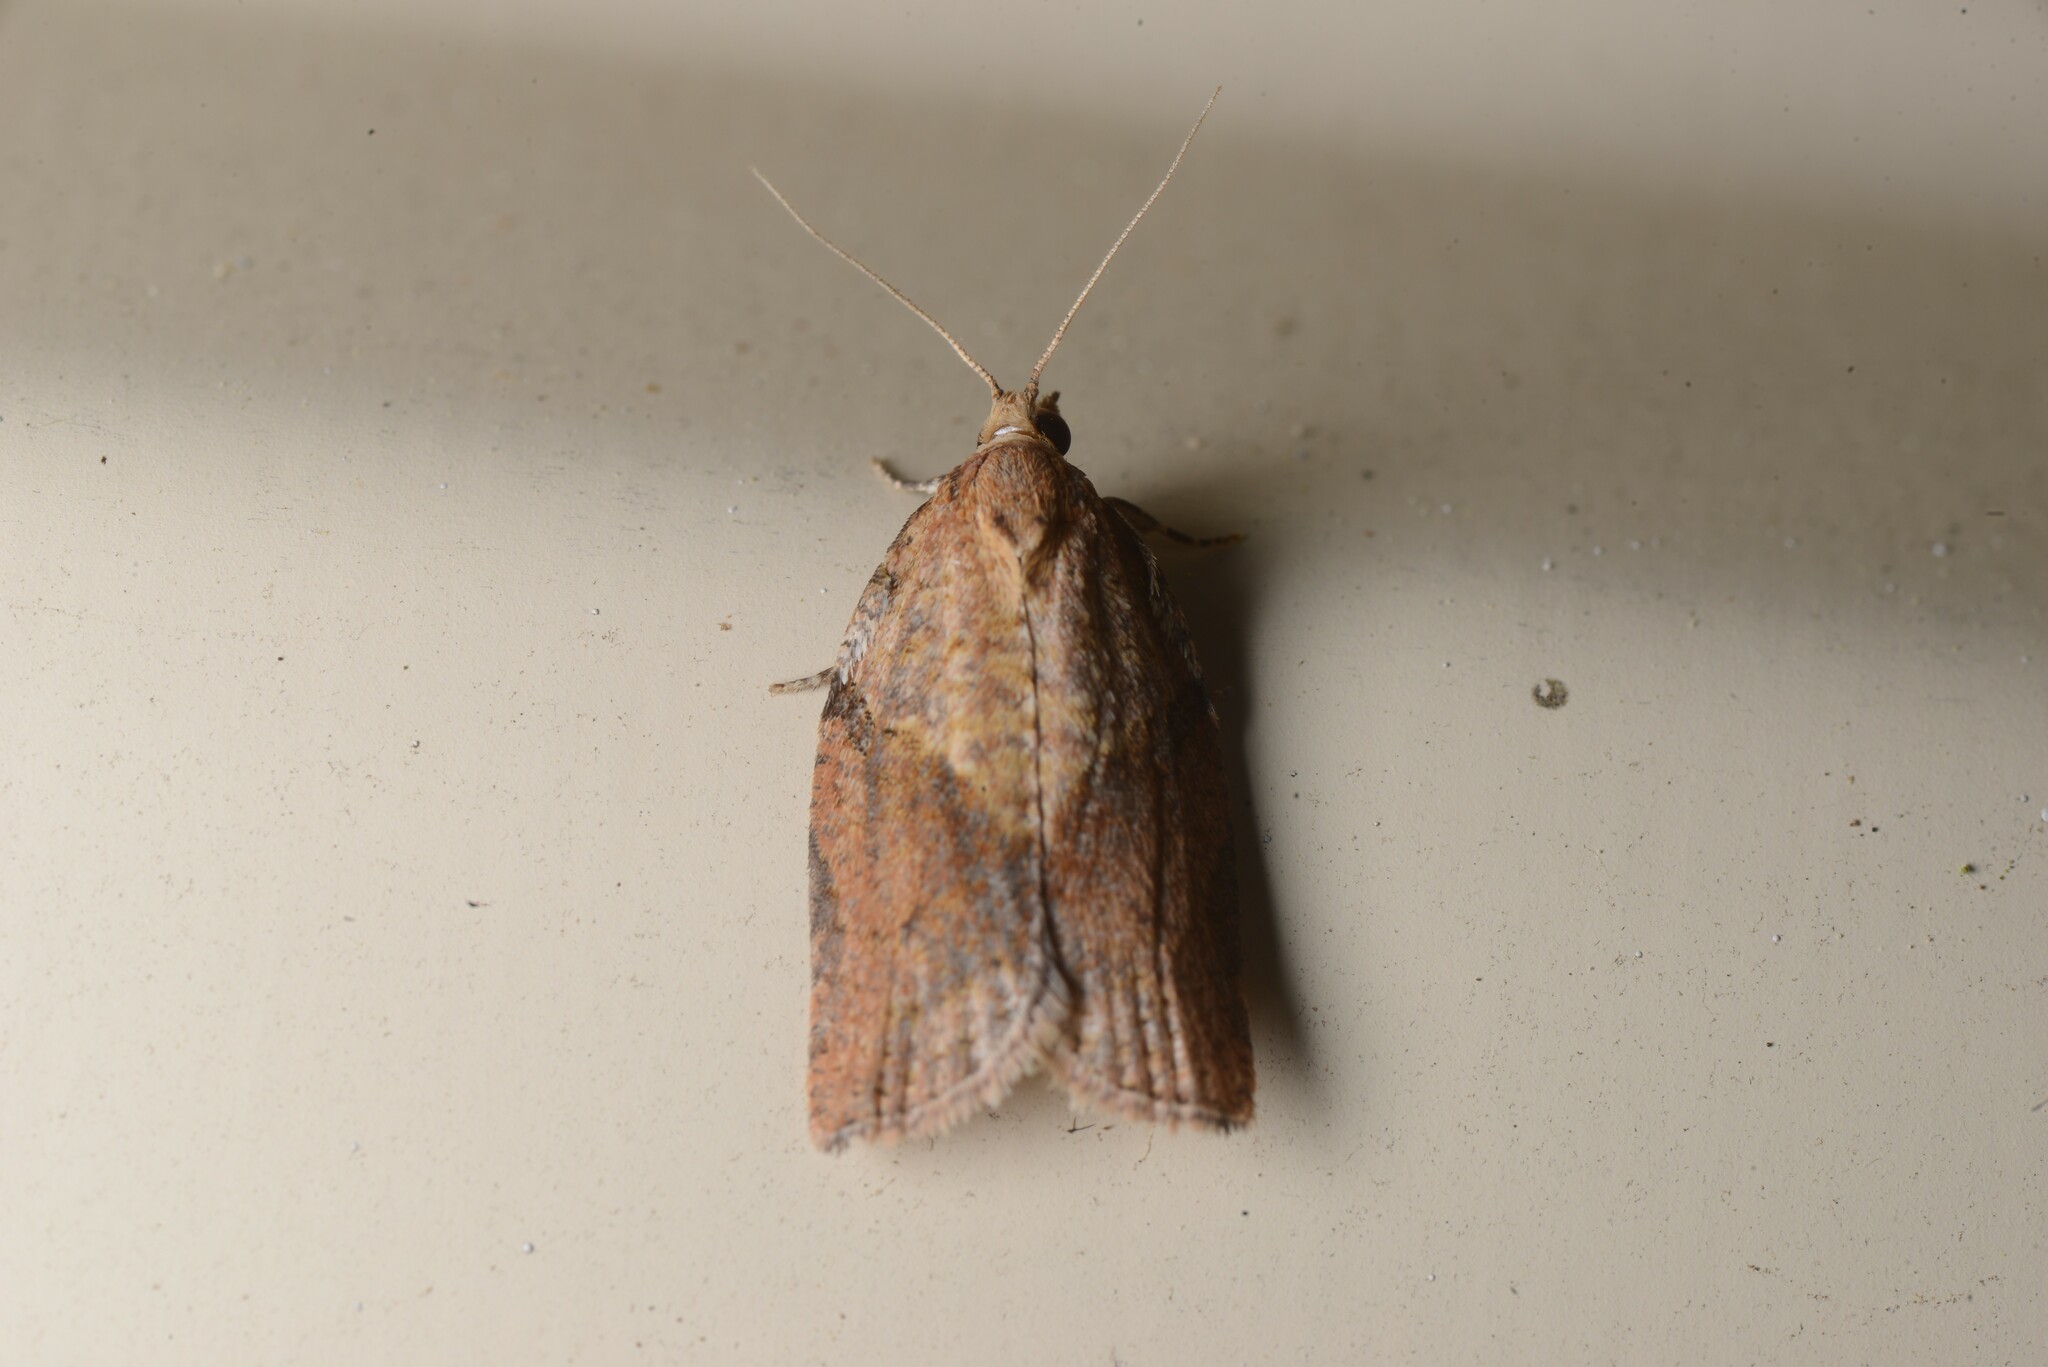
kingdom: Animalia
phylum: Arthropoda
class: Insecta
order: Lepidoptera
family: Tortricidae
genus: Epiphyas
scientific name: Epiphyas postvittana
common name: Light brown apple moth
